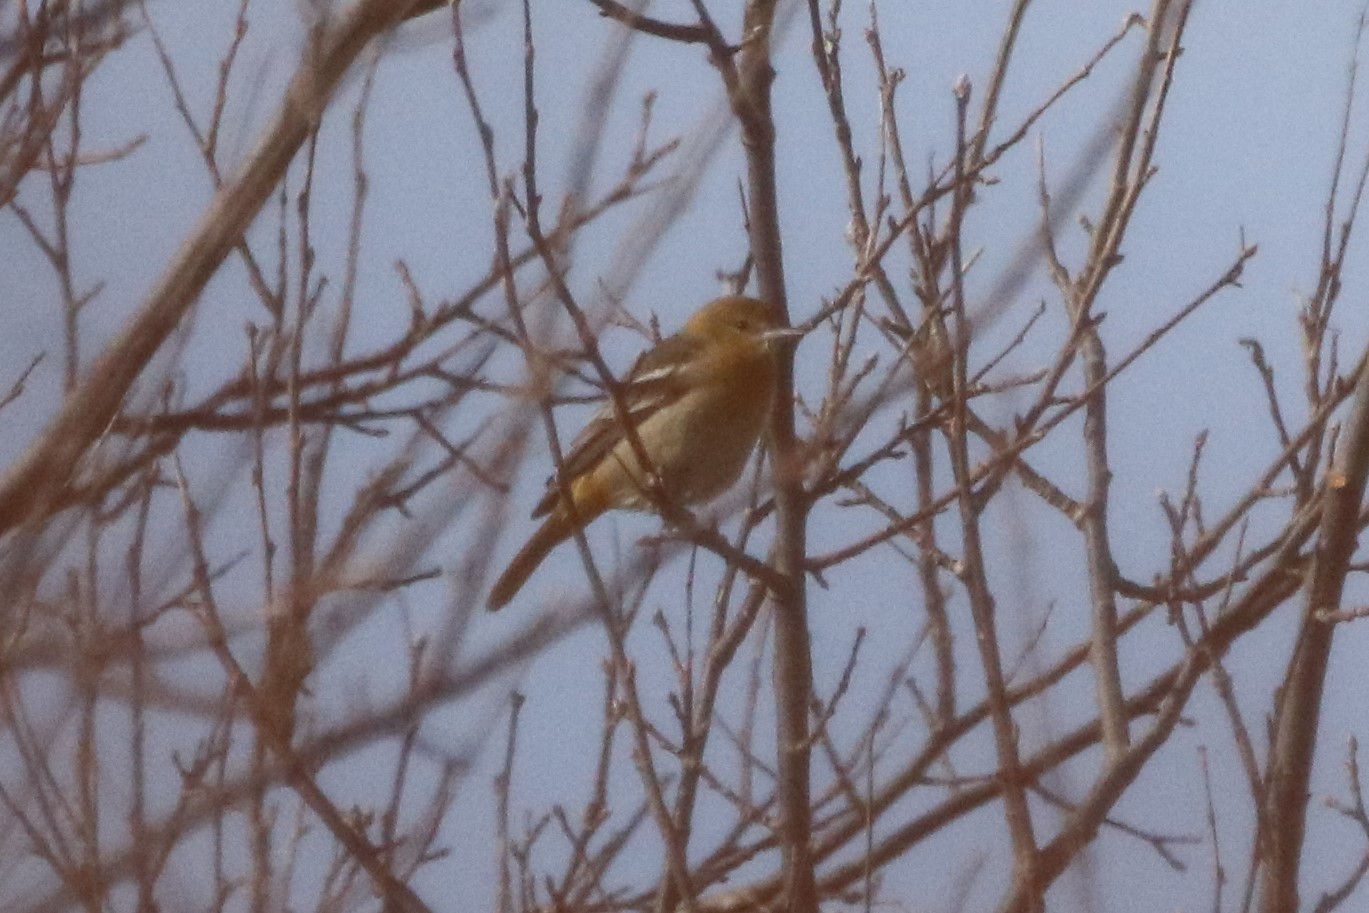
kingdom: Animalia
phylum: Chordata
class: Aves
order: Passeriformes
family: Icteridae
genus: Icterus
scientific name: Icterus galbula
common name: Baltimore oriole
